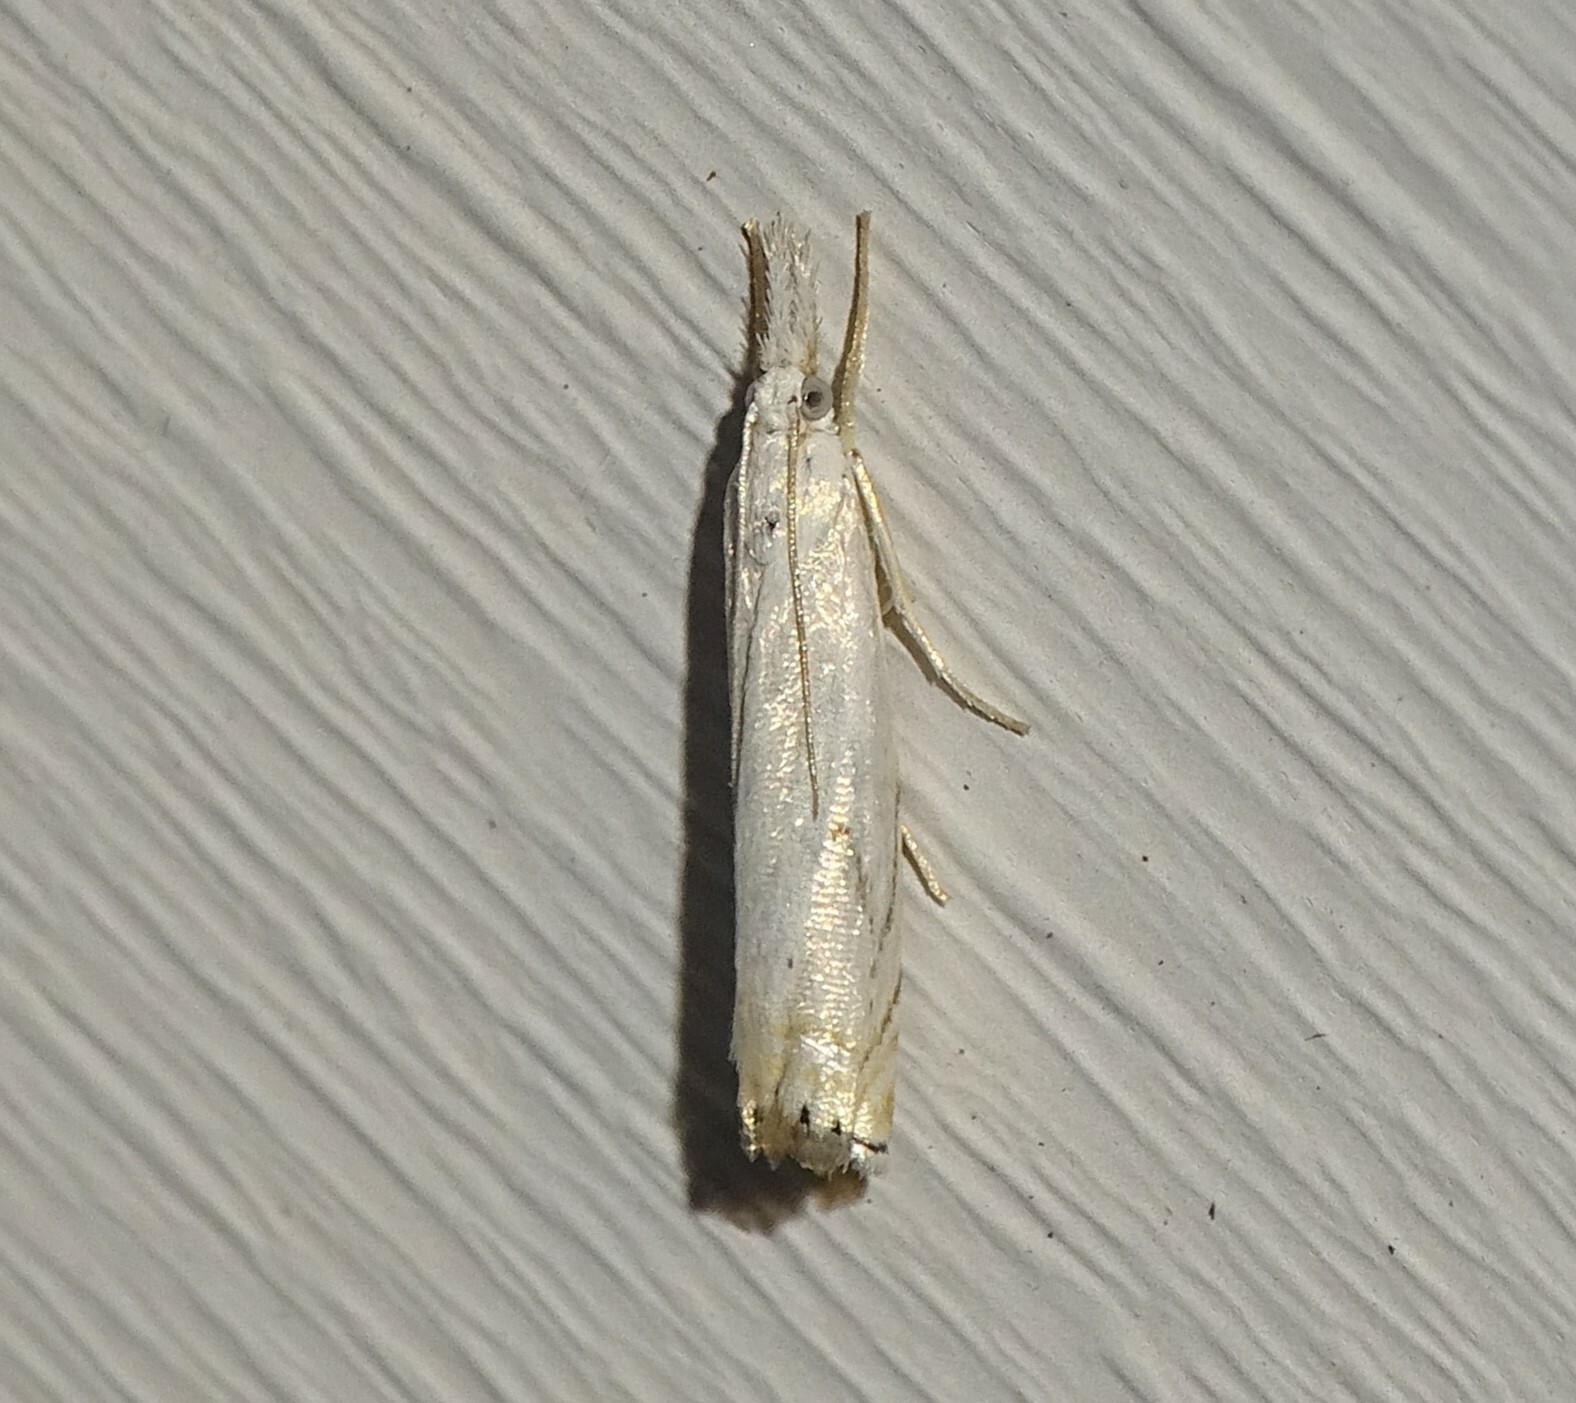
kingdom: Animalia
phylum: Arthropoda
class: Insecta
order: Lepidoptera
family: Crambidae
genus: Crambus
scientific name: Crambus albellus
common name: Small white grass-veneer
